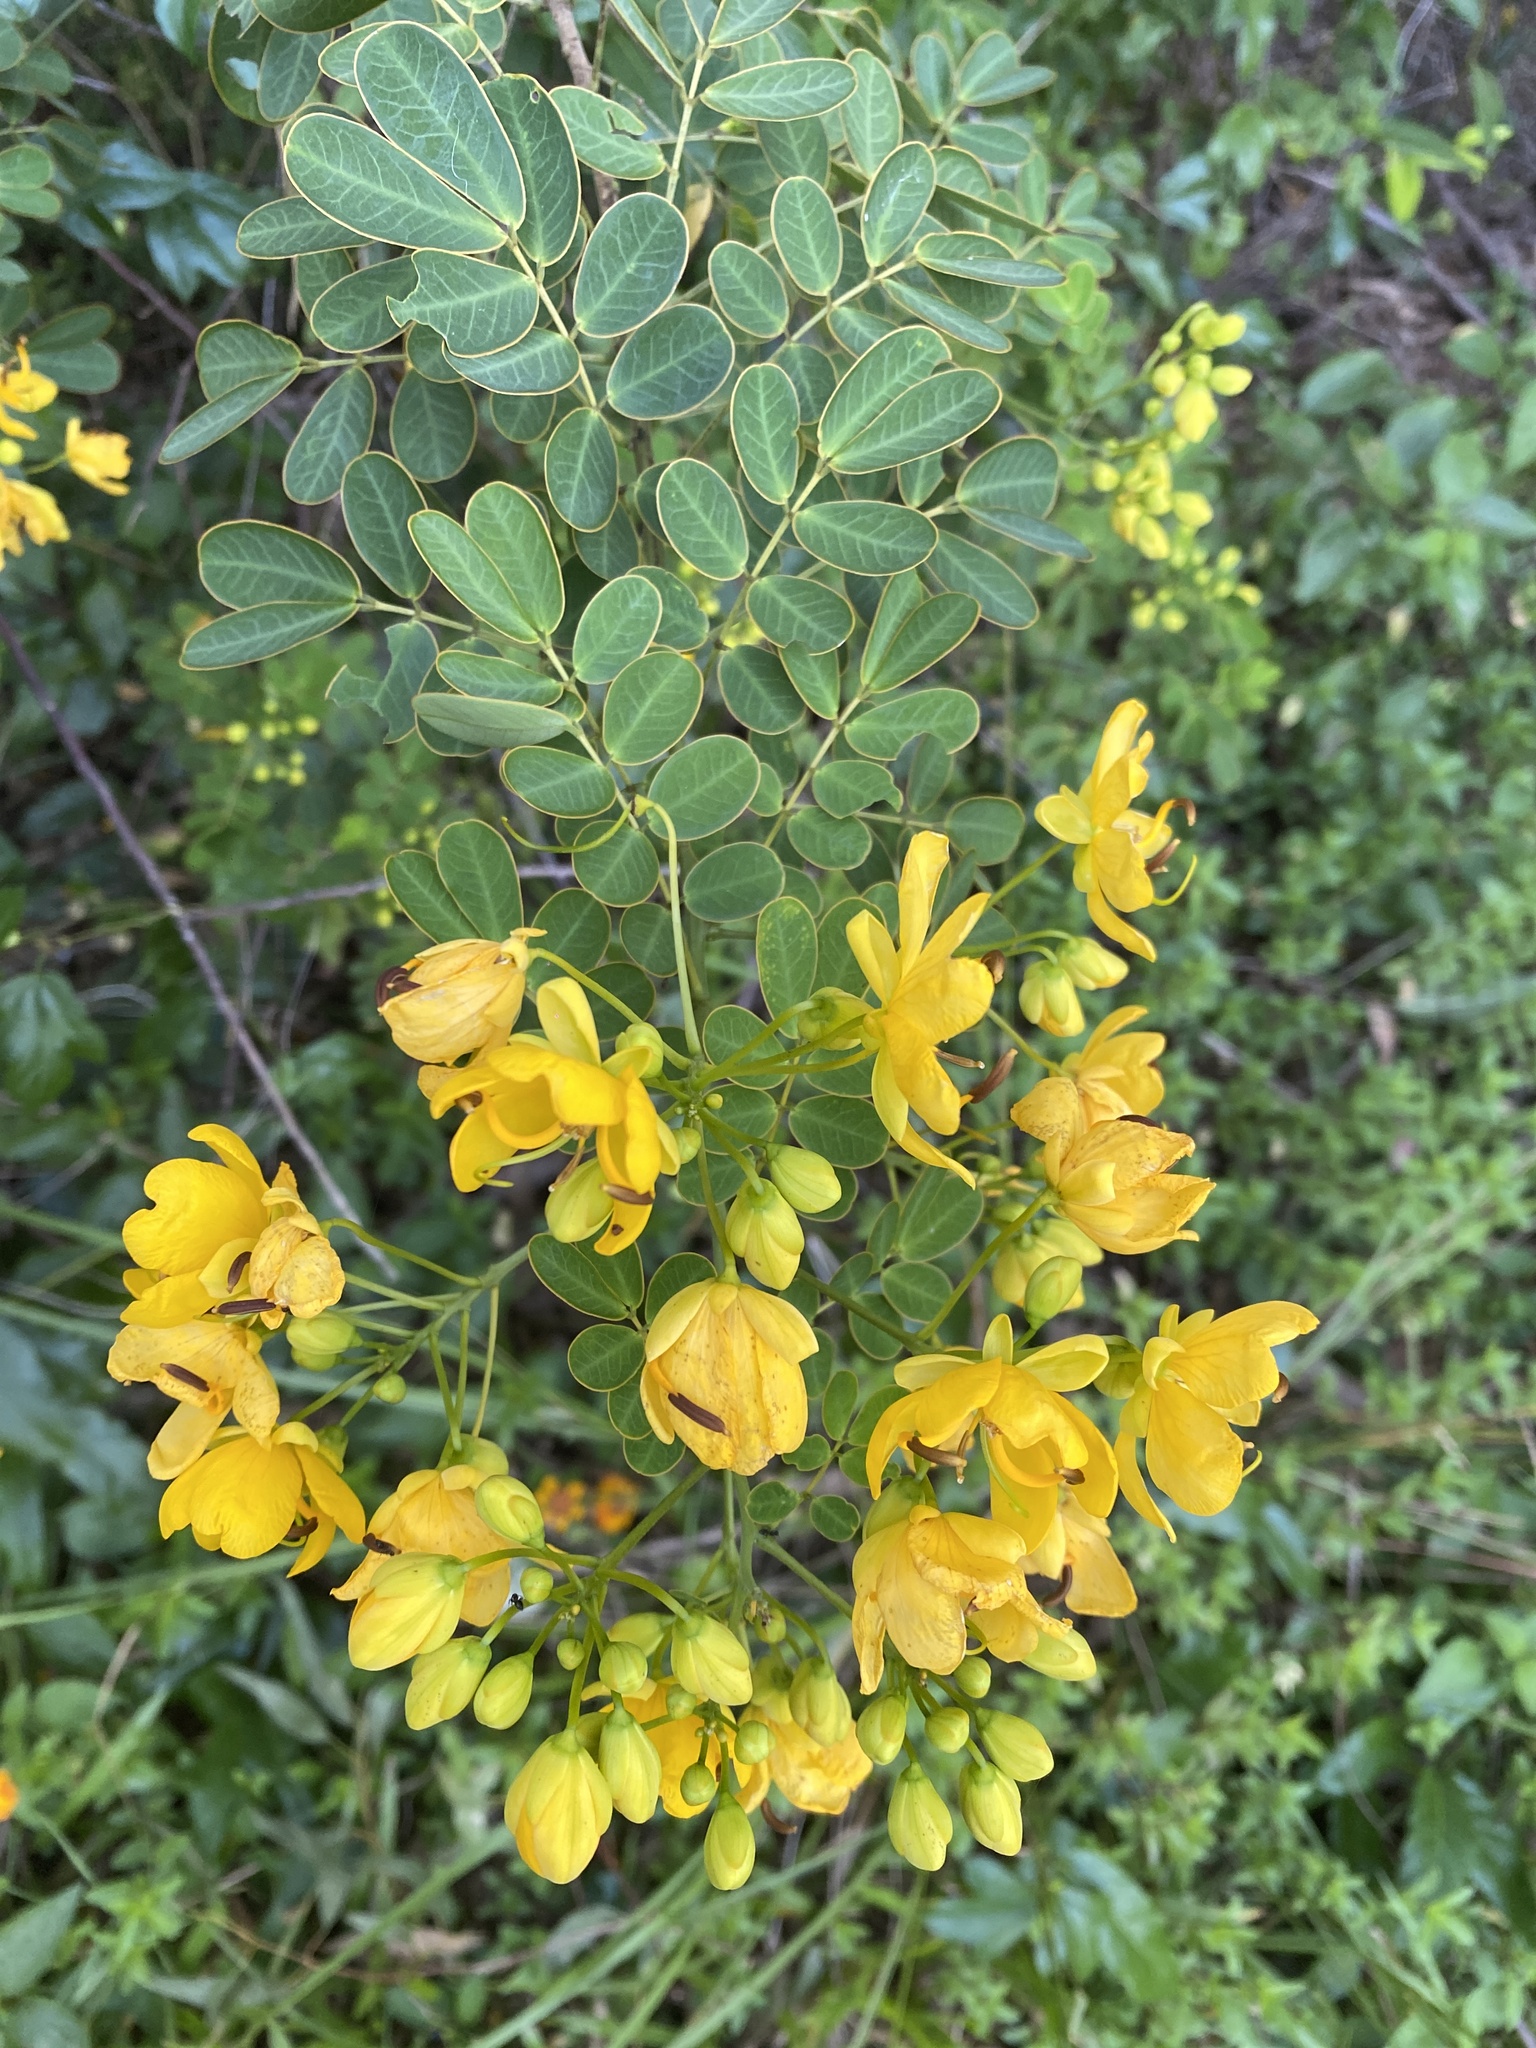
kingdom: Plantae
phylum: Tracheophyta
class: Magnoliopsida
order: Fabales
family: Fabaceae
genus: Senna
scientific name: Senna pendula
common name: Easter cassia
